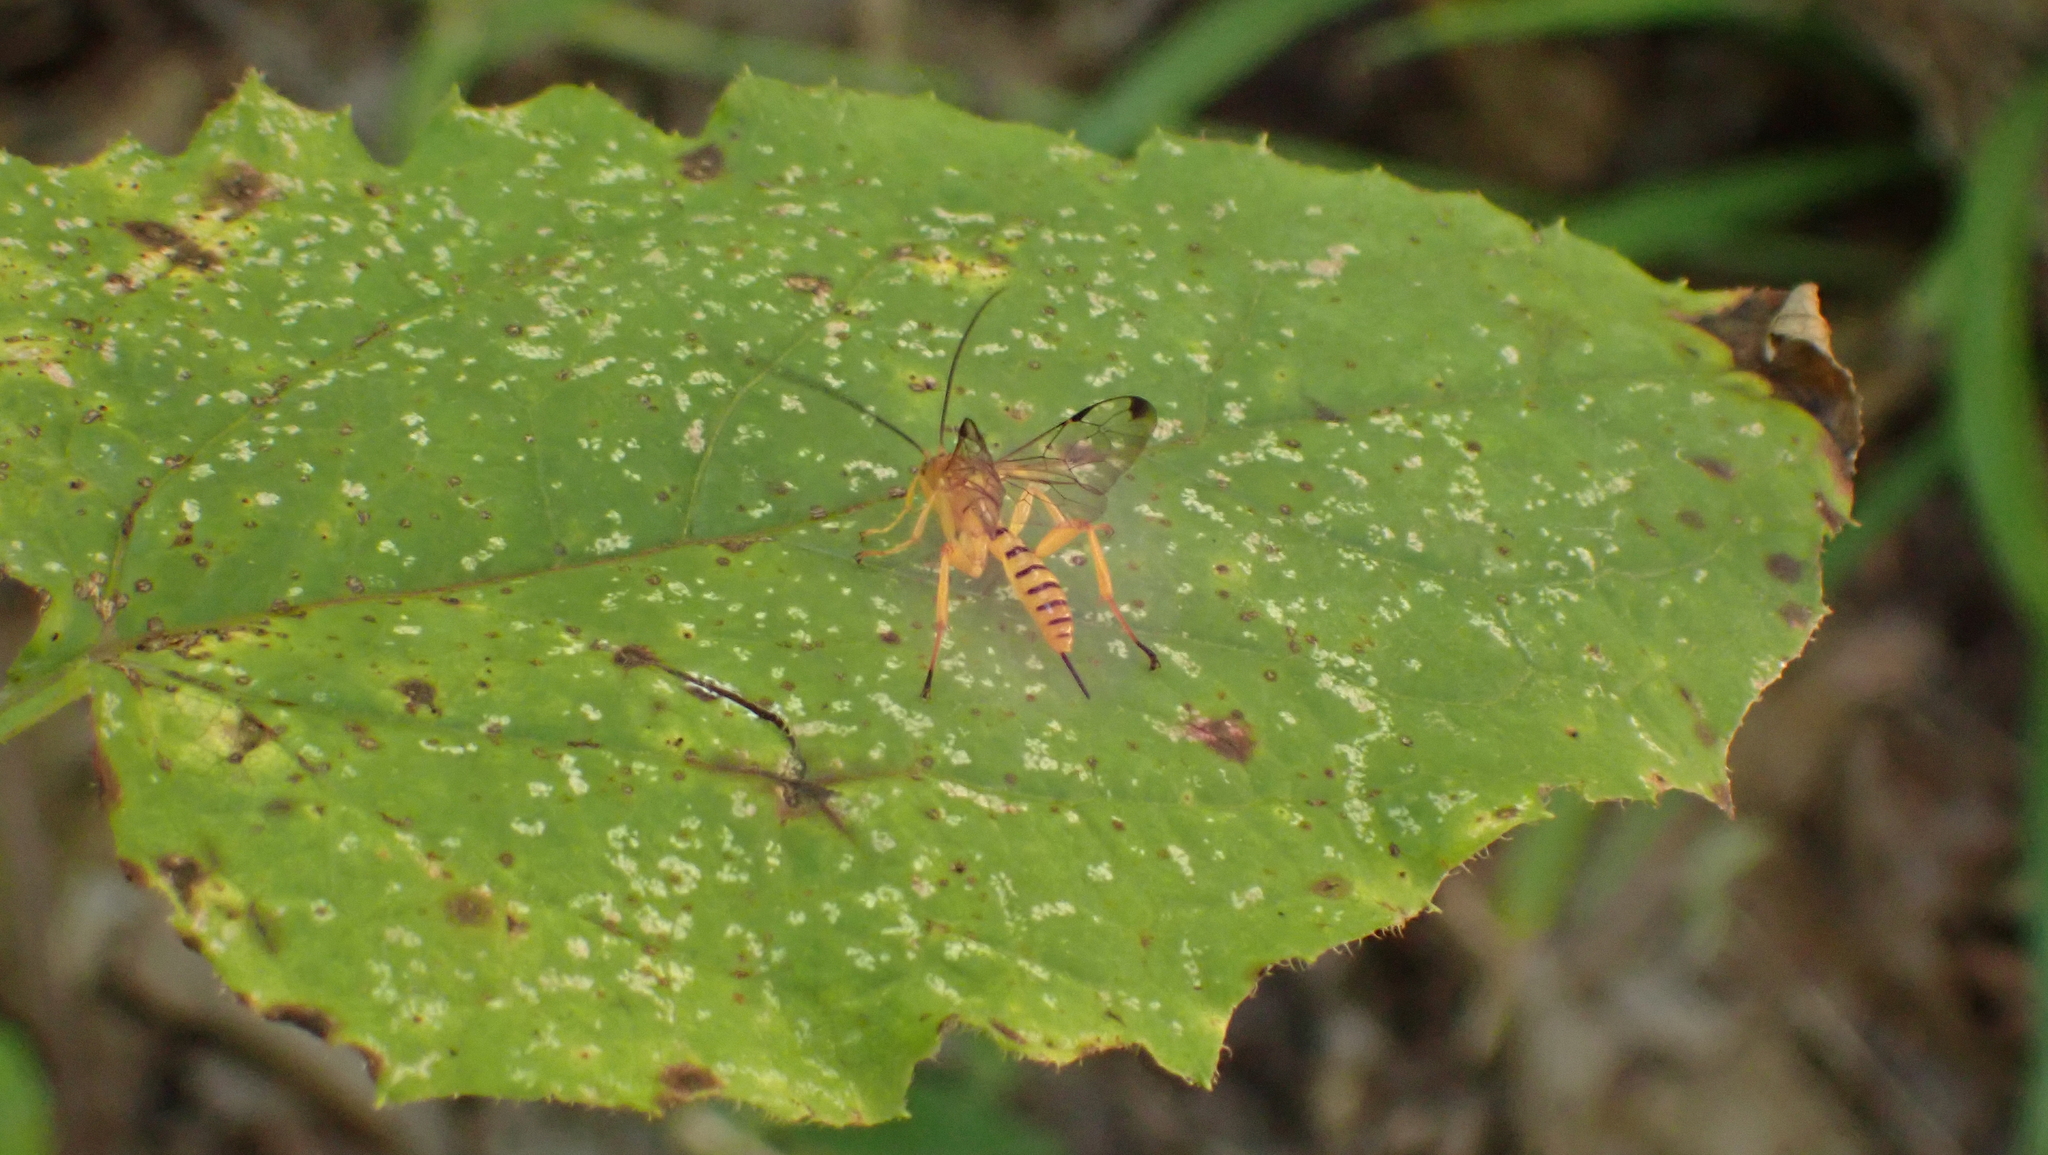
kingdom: Animalia
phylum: Arthropoda
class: Insecta
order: Hymenoptera
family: Ichneumonidae
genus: Neotheronia
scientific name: Neotheronia septemtrionalis
